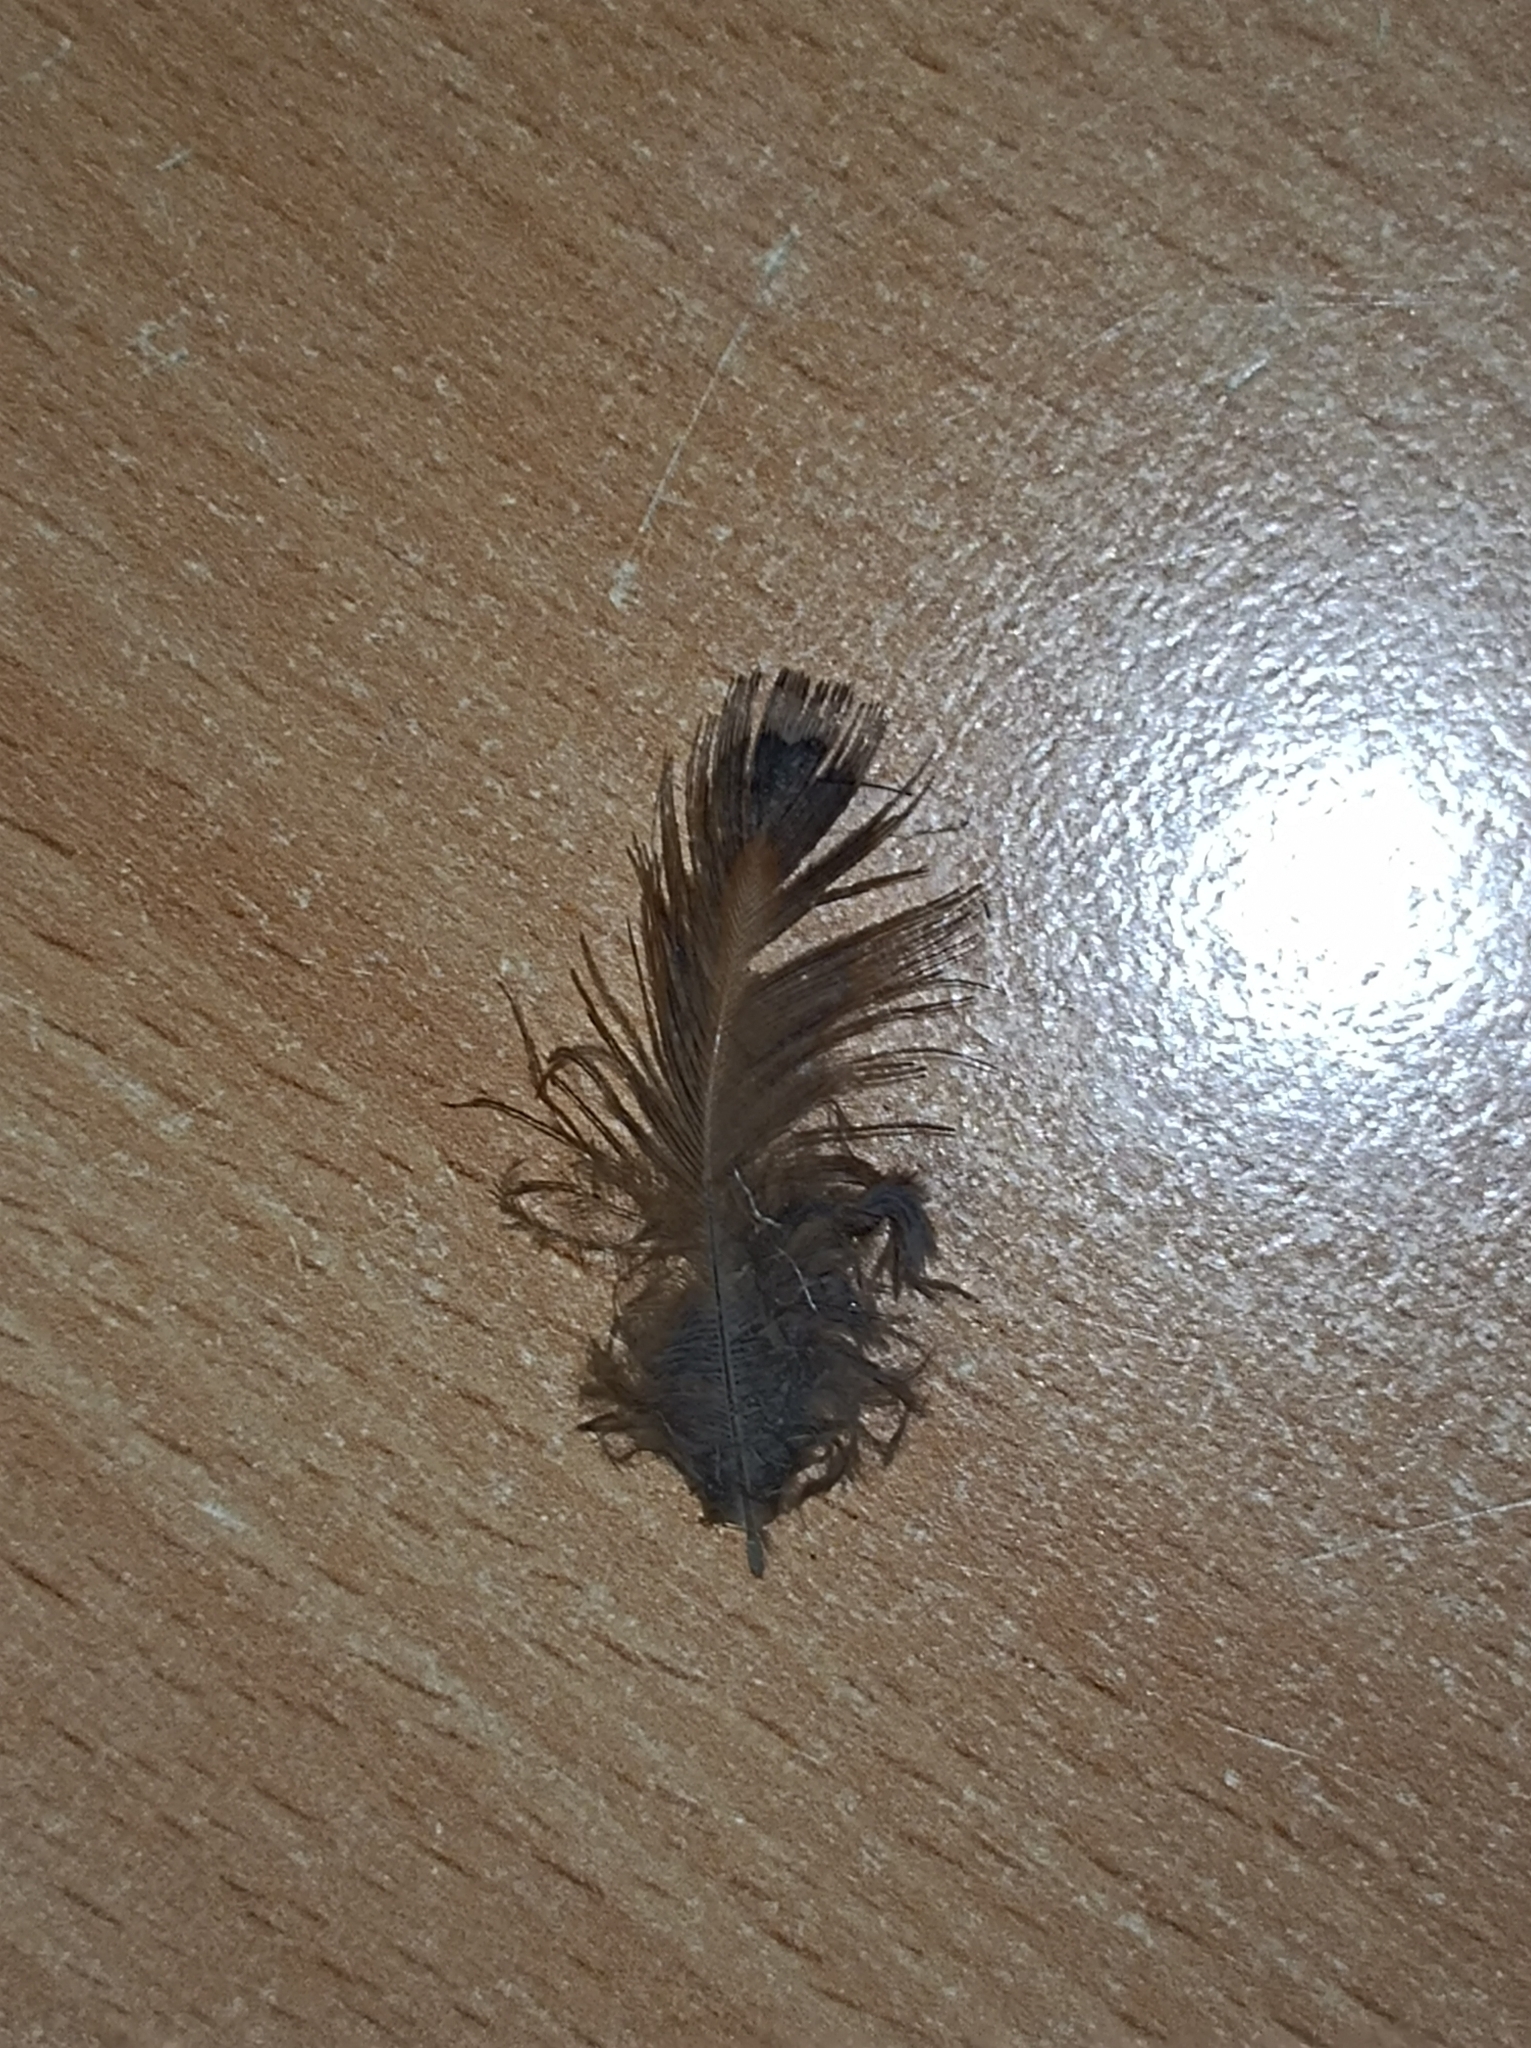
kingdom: Animalia
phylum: Chordata
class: Aves
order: Galliformes
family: Phasianidae
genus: Phasianus
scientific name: Phasianus colchicus
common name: Common pheasant
